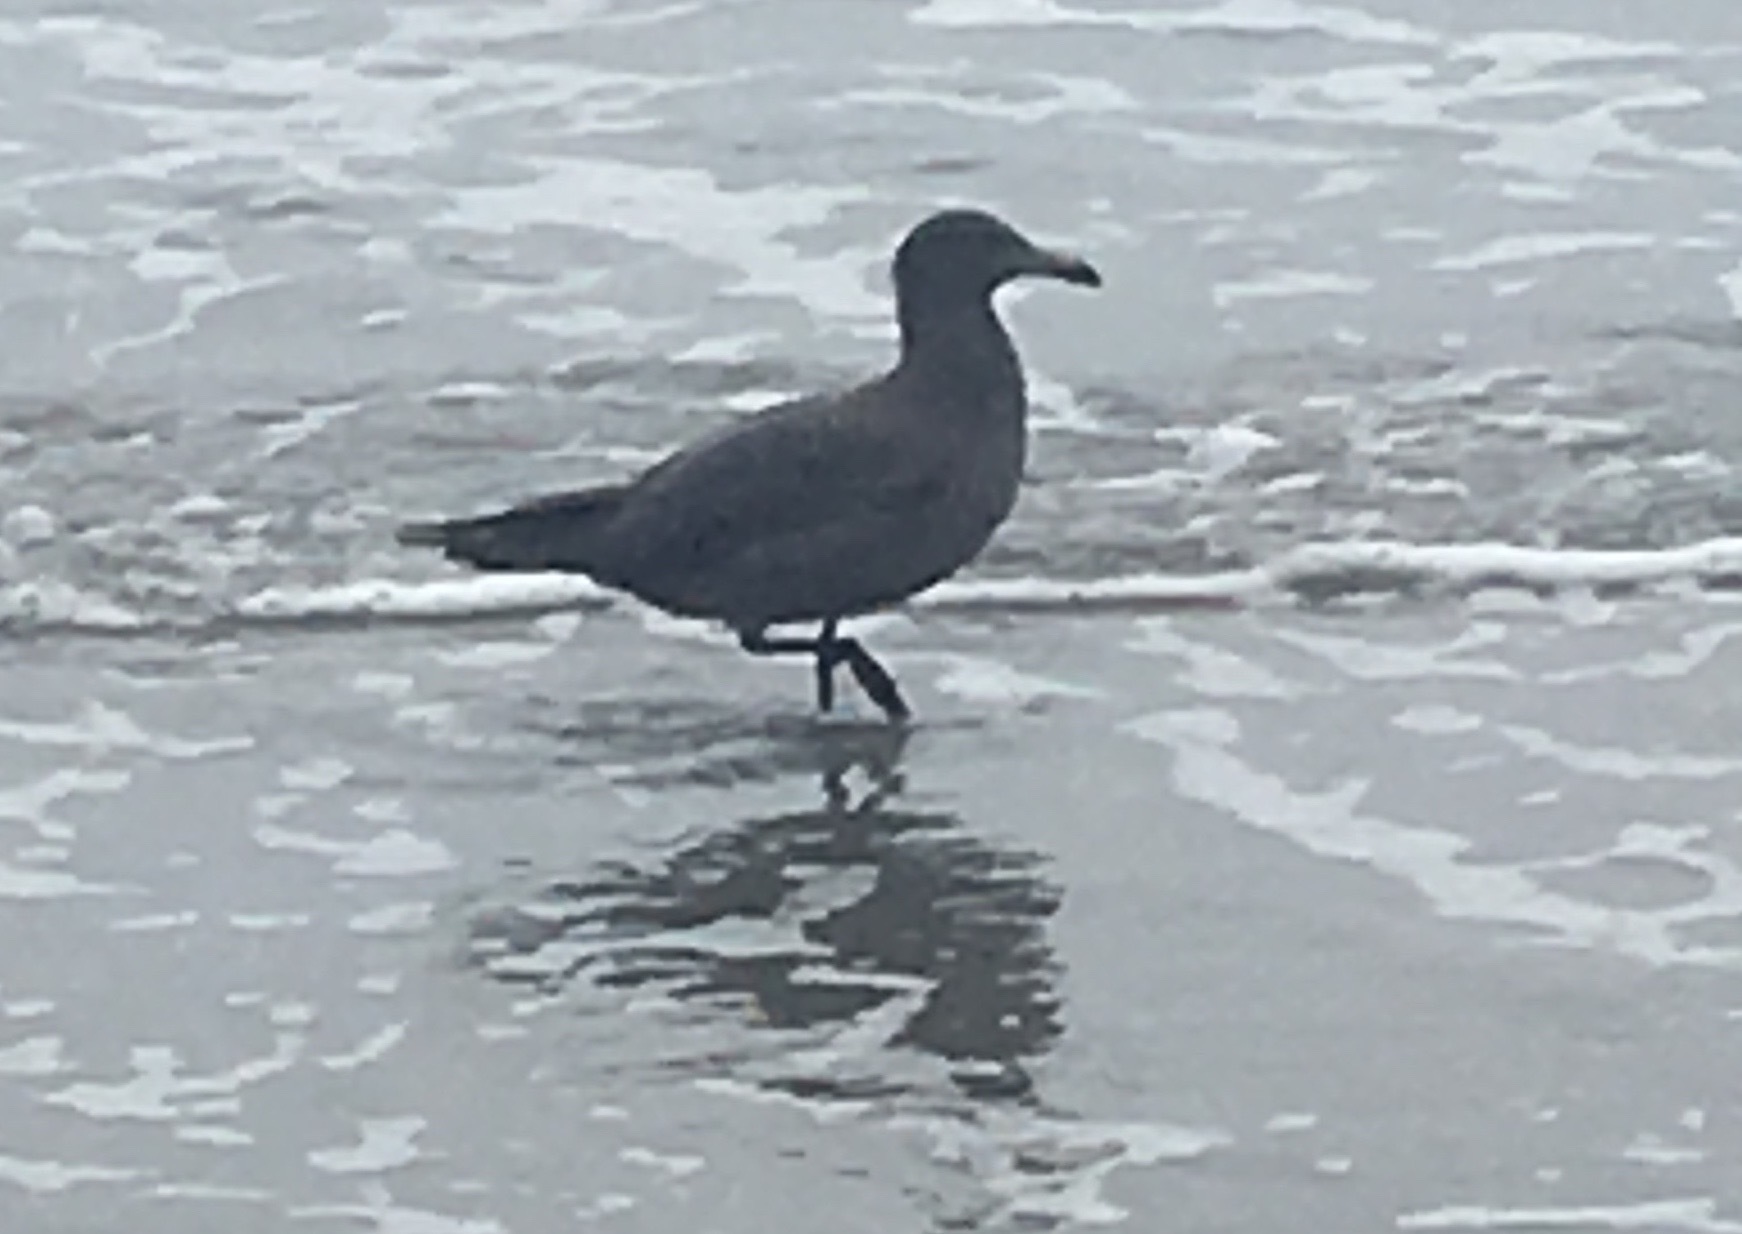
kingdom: Animalia
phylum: Chordata
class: Aves
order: Charadriiformes
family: Laridae
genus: Larus
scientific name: Larus heermanni
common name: Heermann's gull
